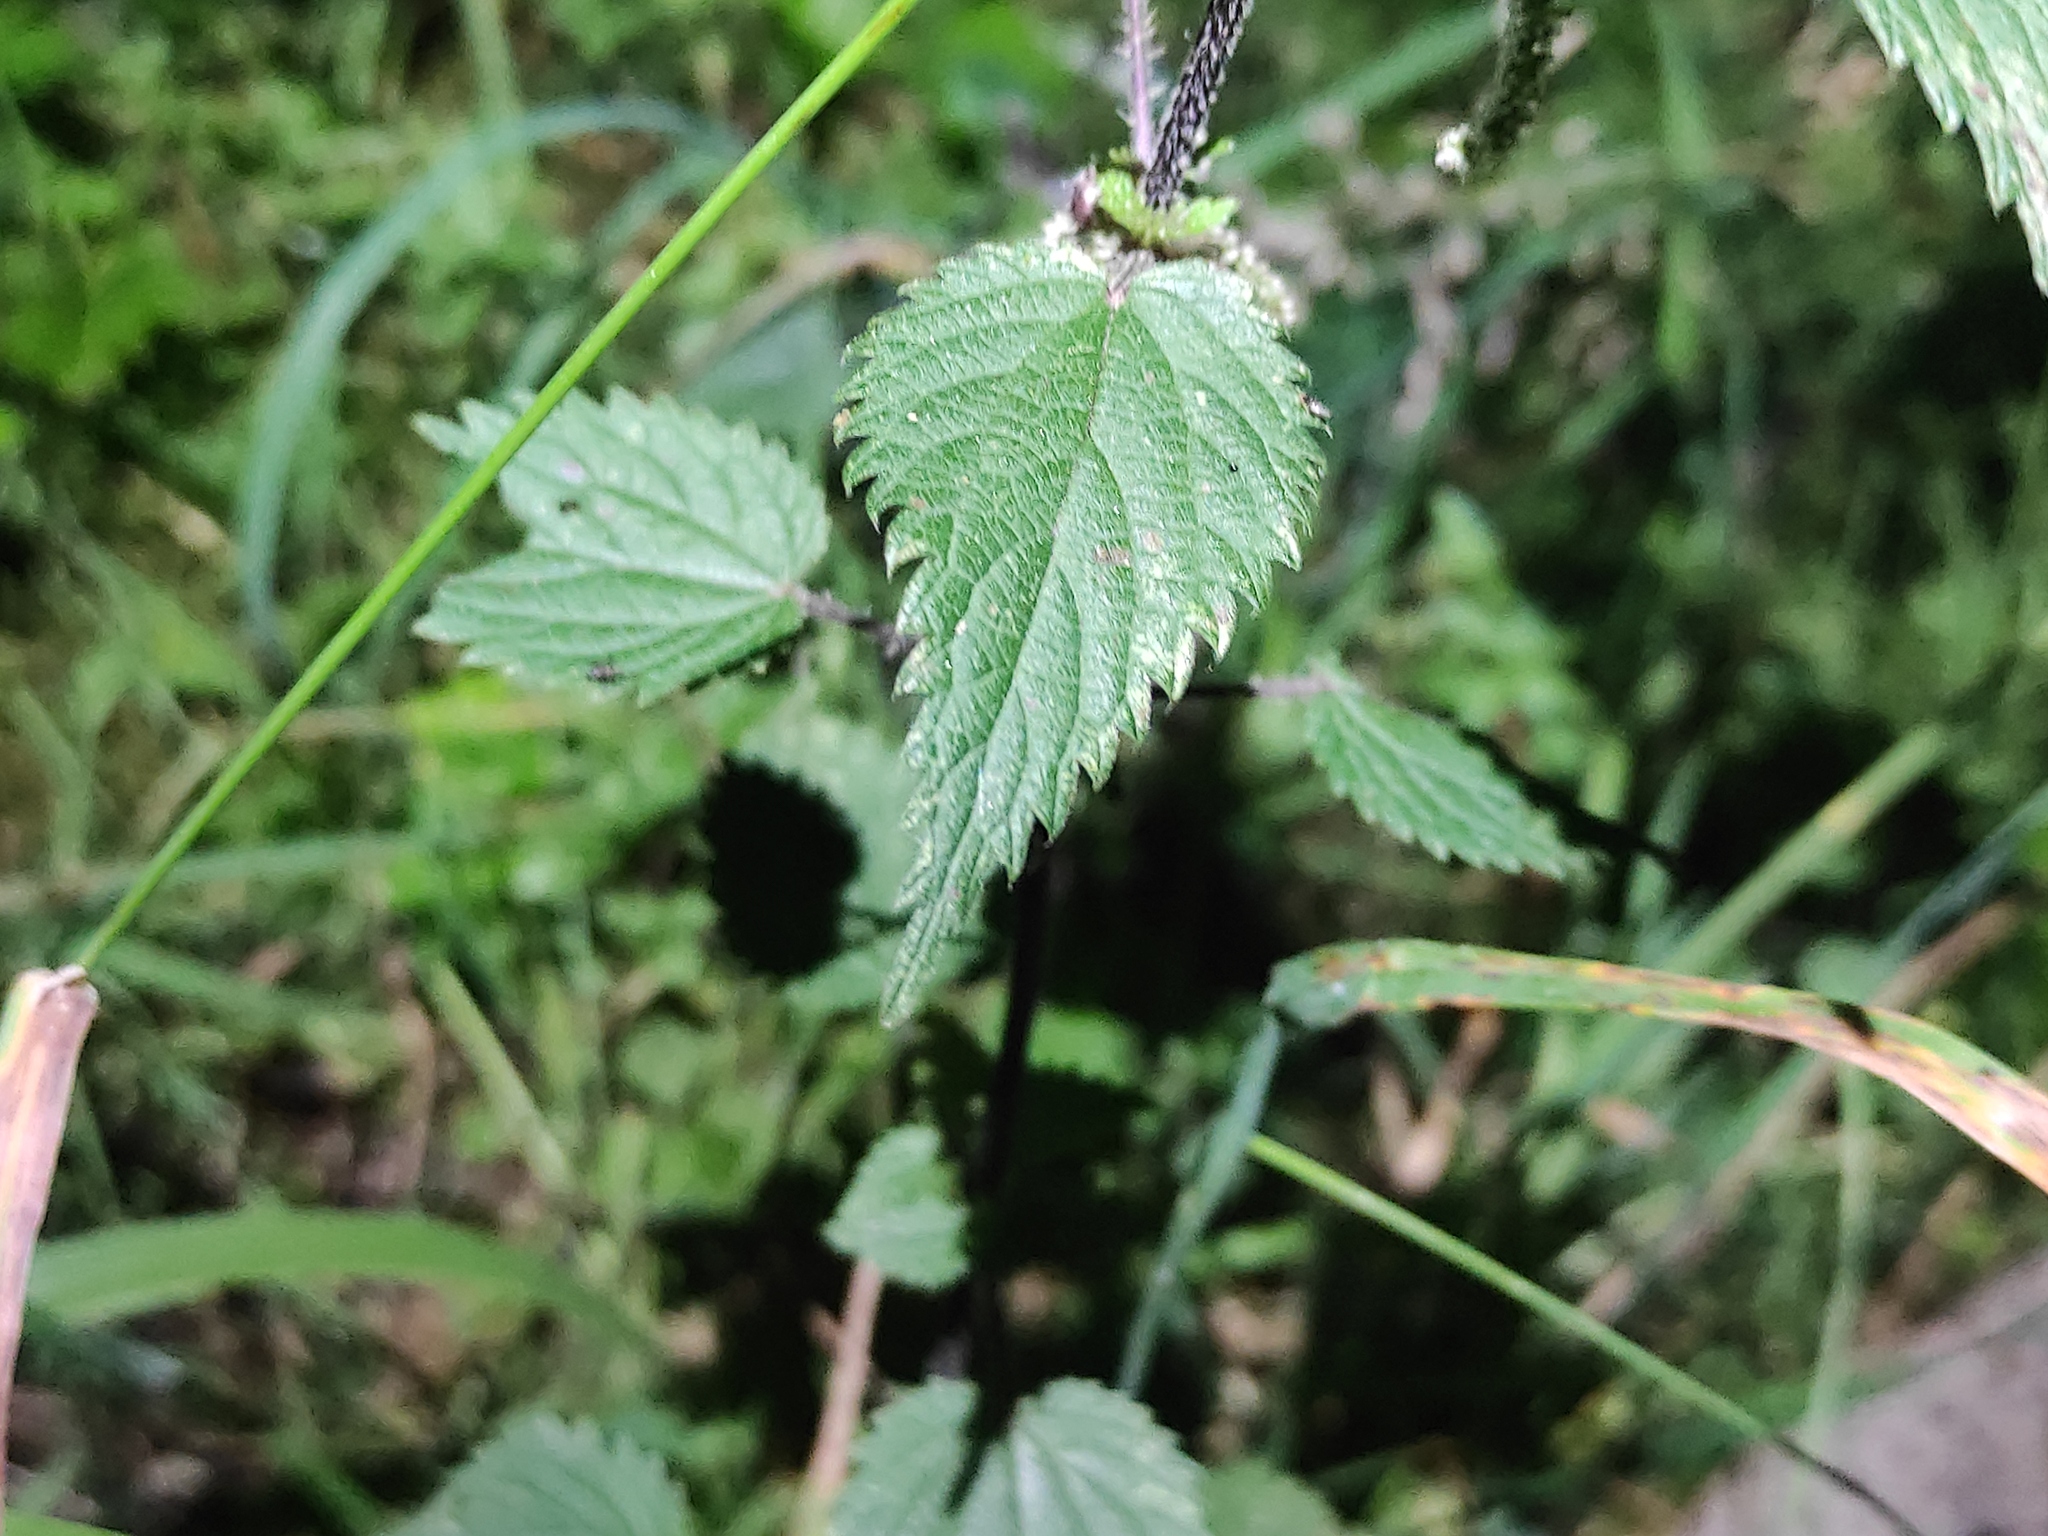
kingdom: Plantae
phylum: Tracheophyta
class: Magnoliopsida
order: Rosales
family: Urticaceae
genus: Urtica
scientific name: Urtica dioica
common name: Common nettle
